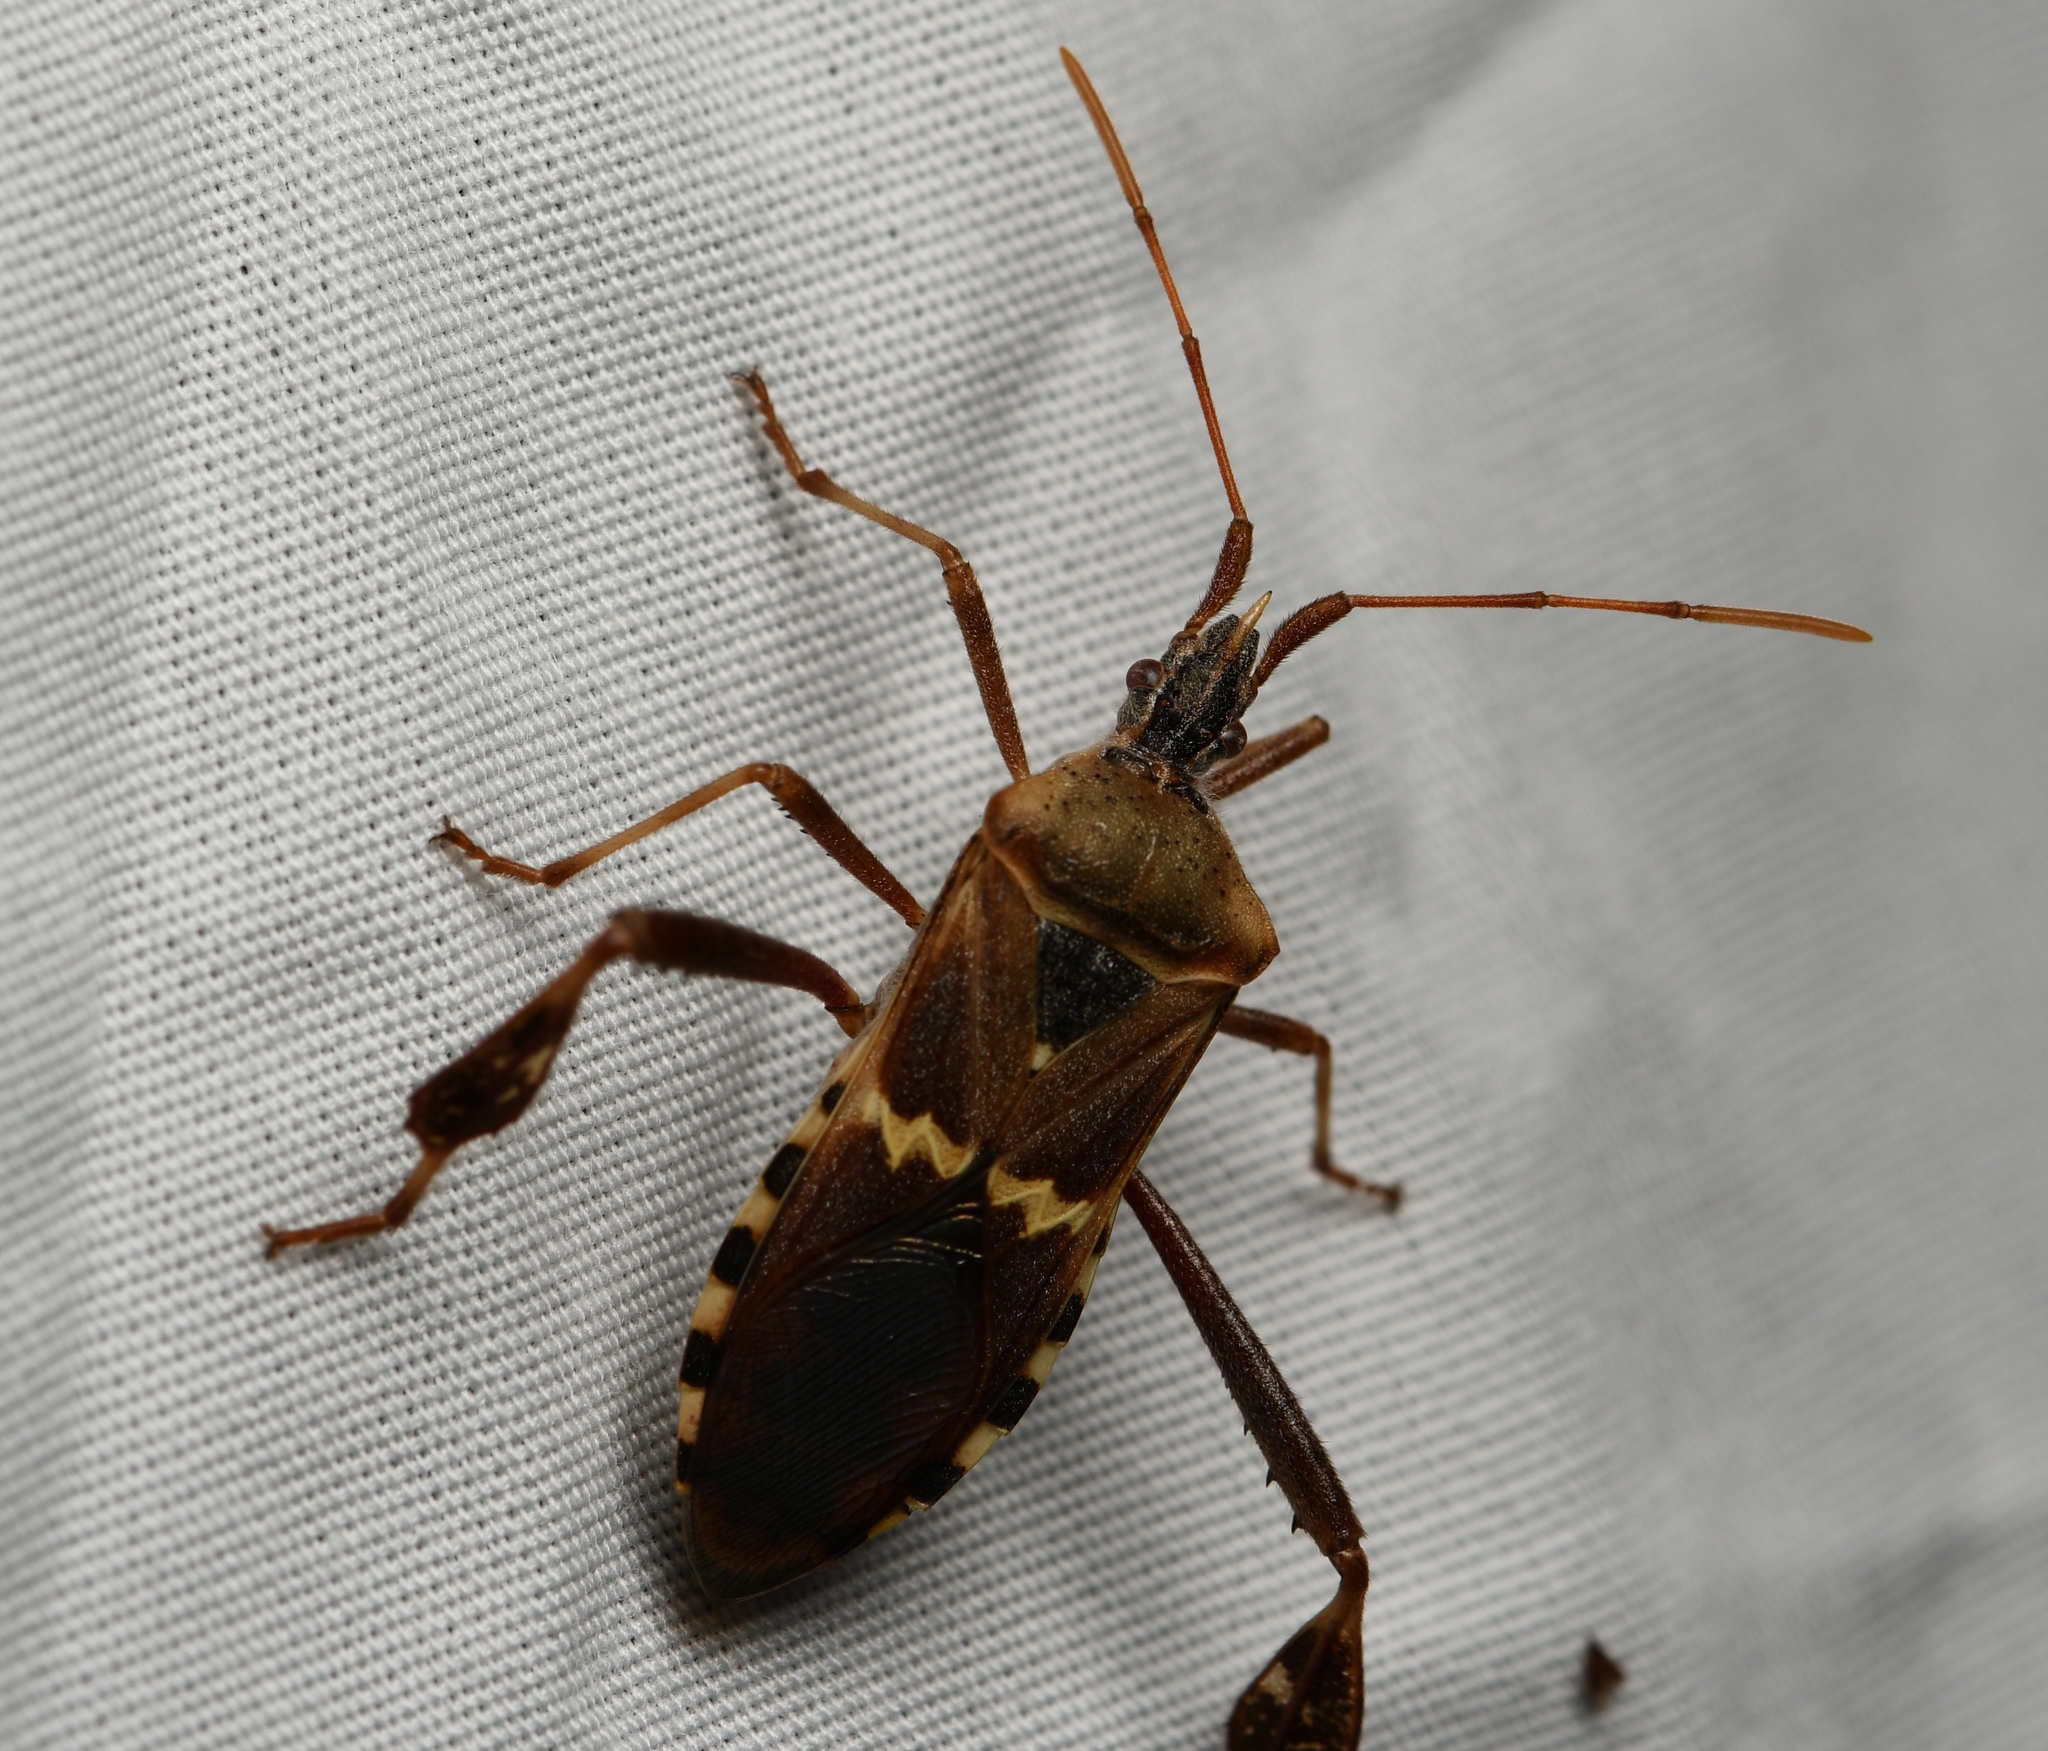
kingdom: Animalia
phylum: Arthropoda
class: Insecta
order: Hemiptera
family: Coreidae
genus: Leptoglossus
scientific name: Leptoglossus clypealis
